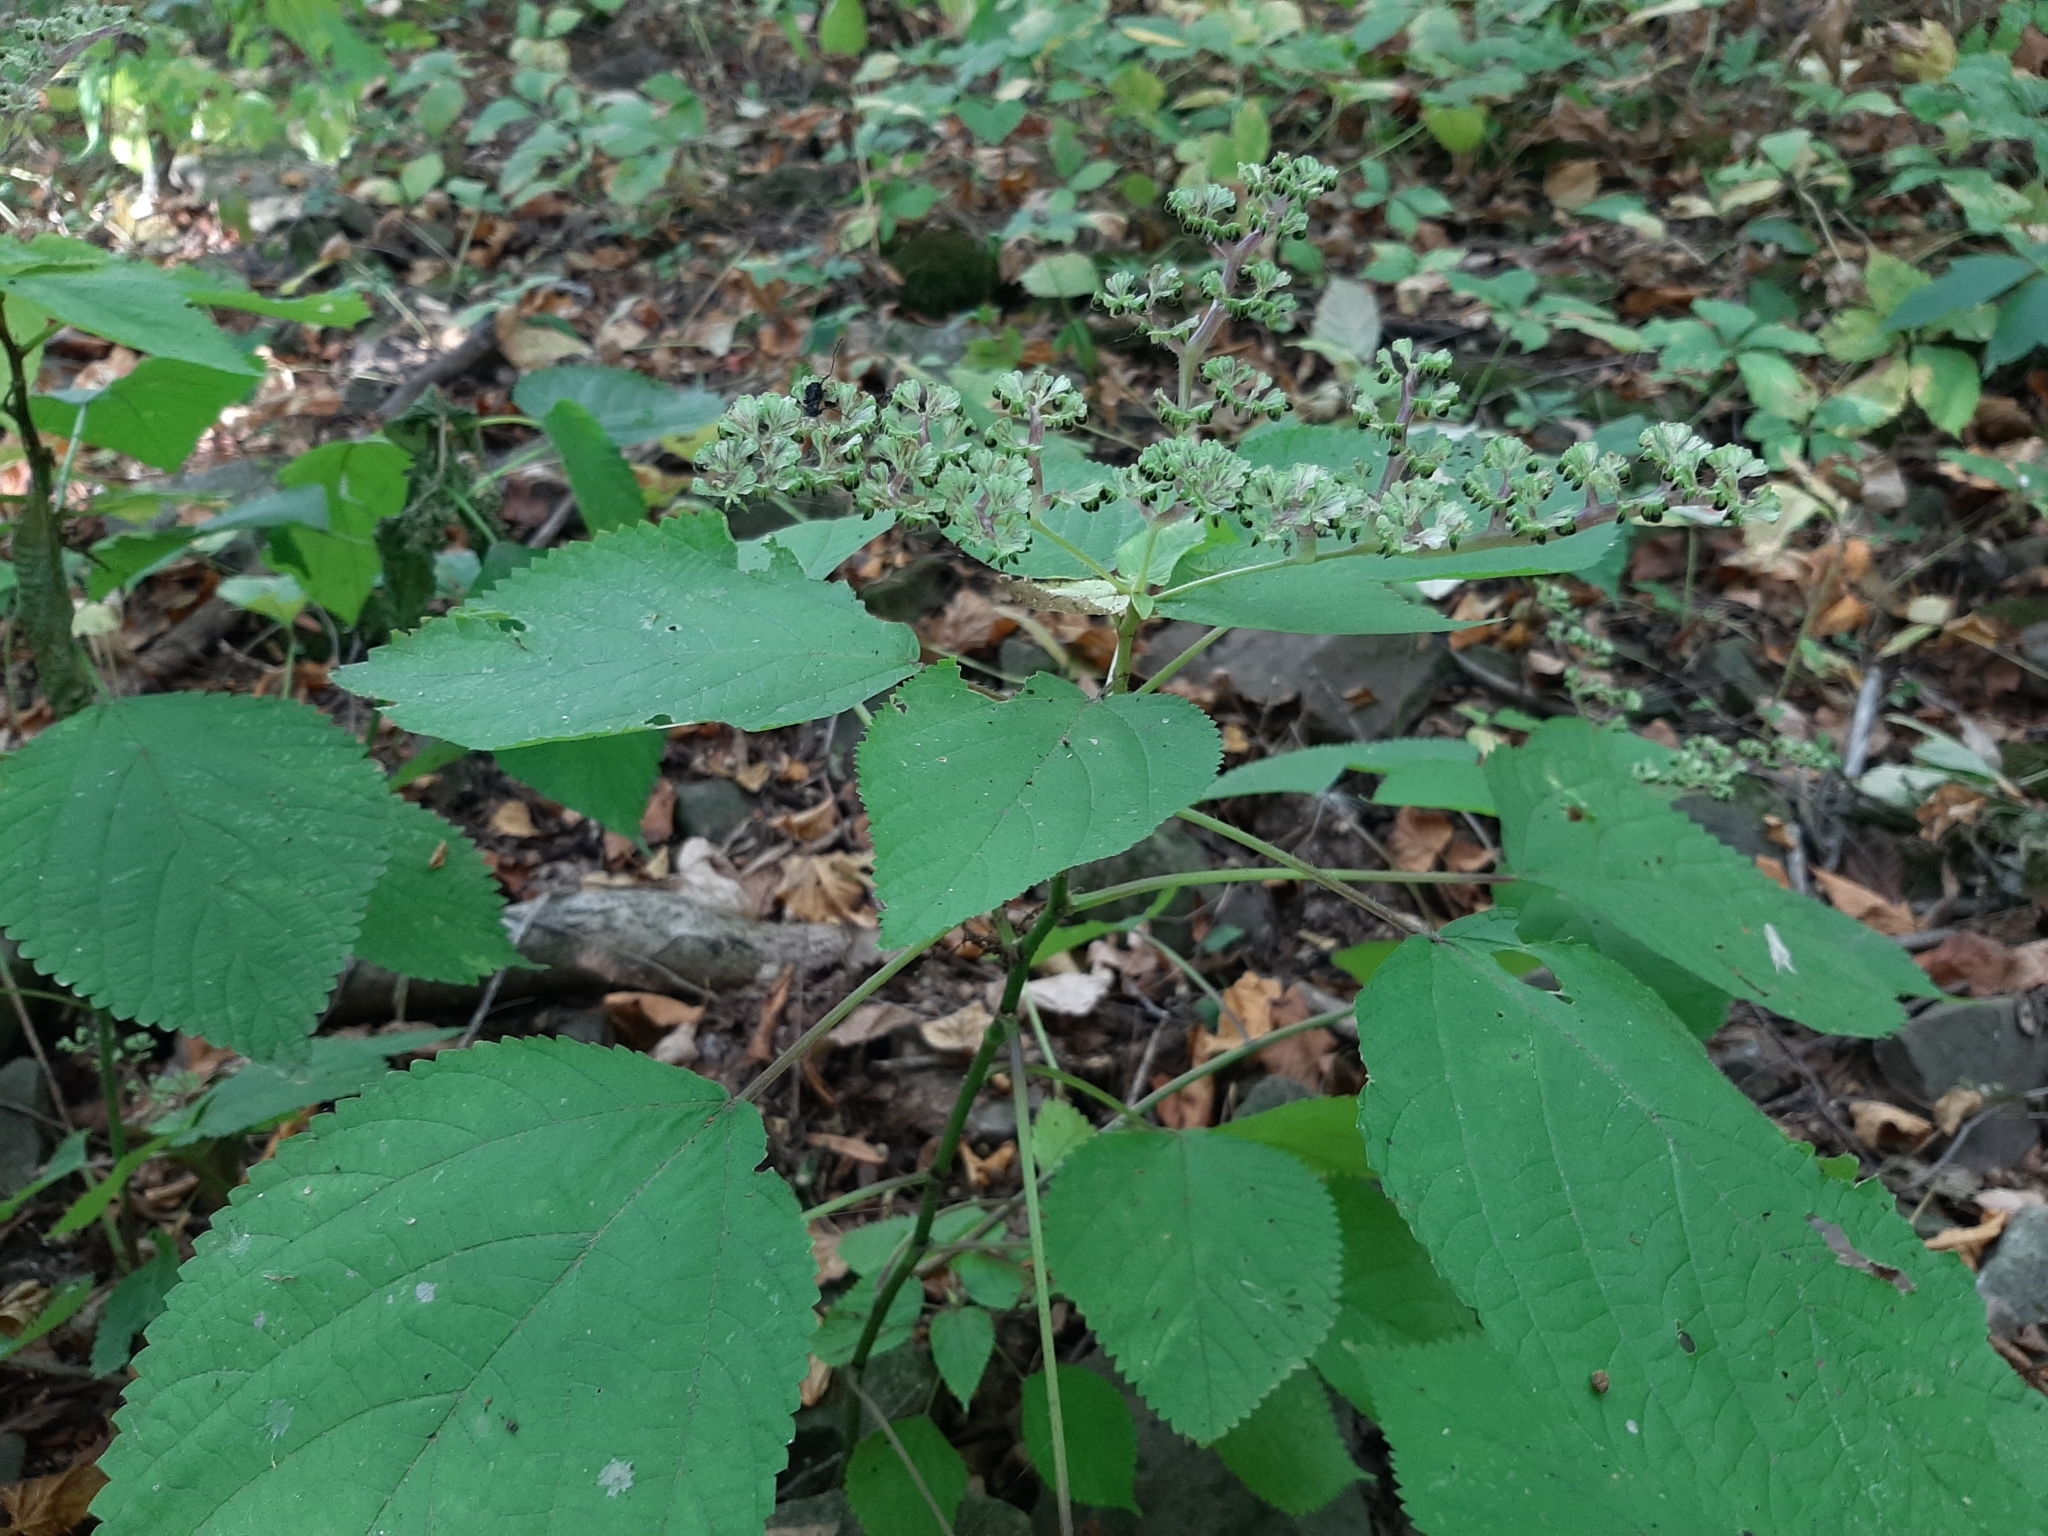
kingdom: Plantae
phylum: Tracheophyta
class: Magnoliopsida
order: Rosales
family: Urticaceae
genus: Laportea
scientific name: Laportea canadensis
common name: Canada nettle
